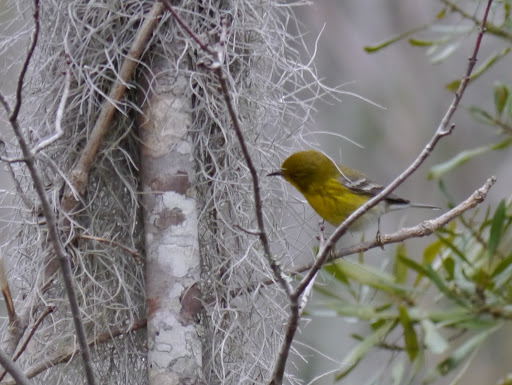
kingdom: Animalia
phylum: Chordata
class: Aves
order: Passeriformes
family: Parulidae
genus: Setophaga
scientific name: Setophaga pinus
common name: Pine warbler
